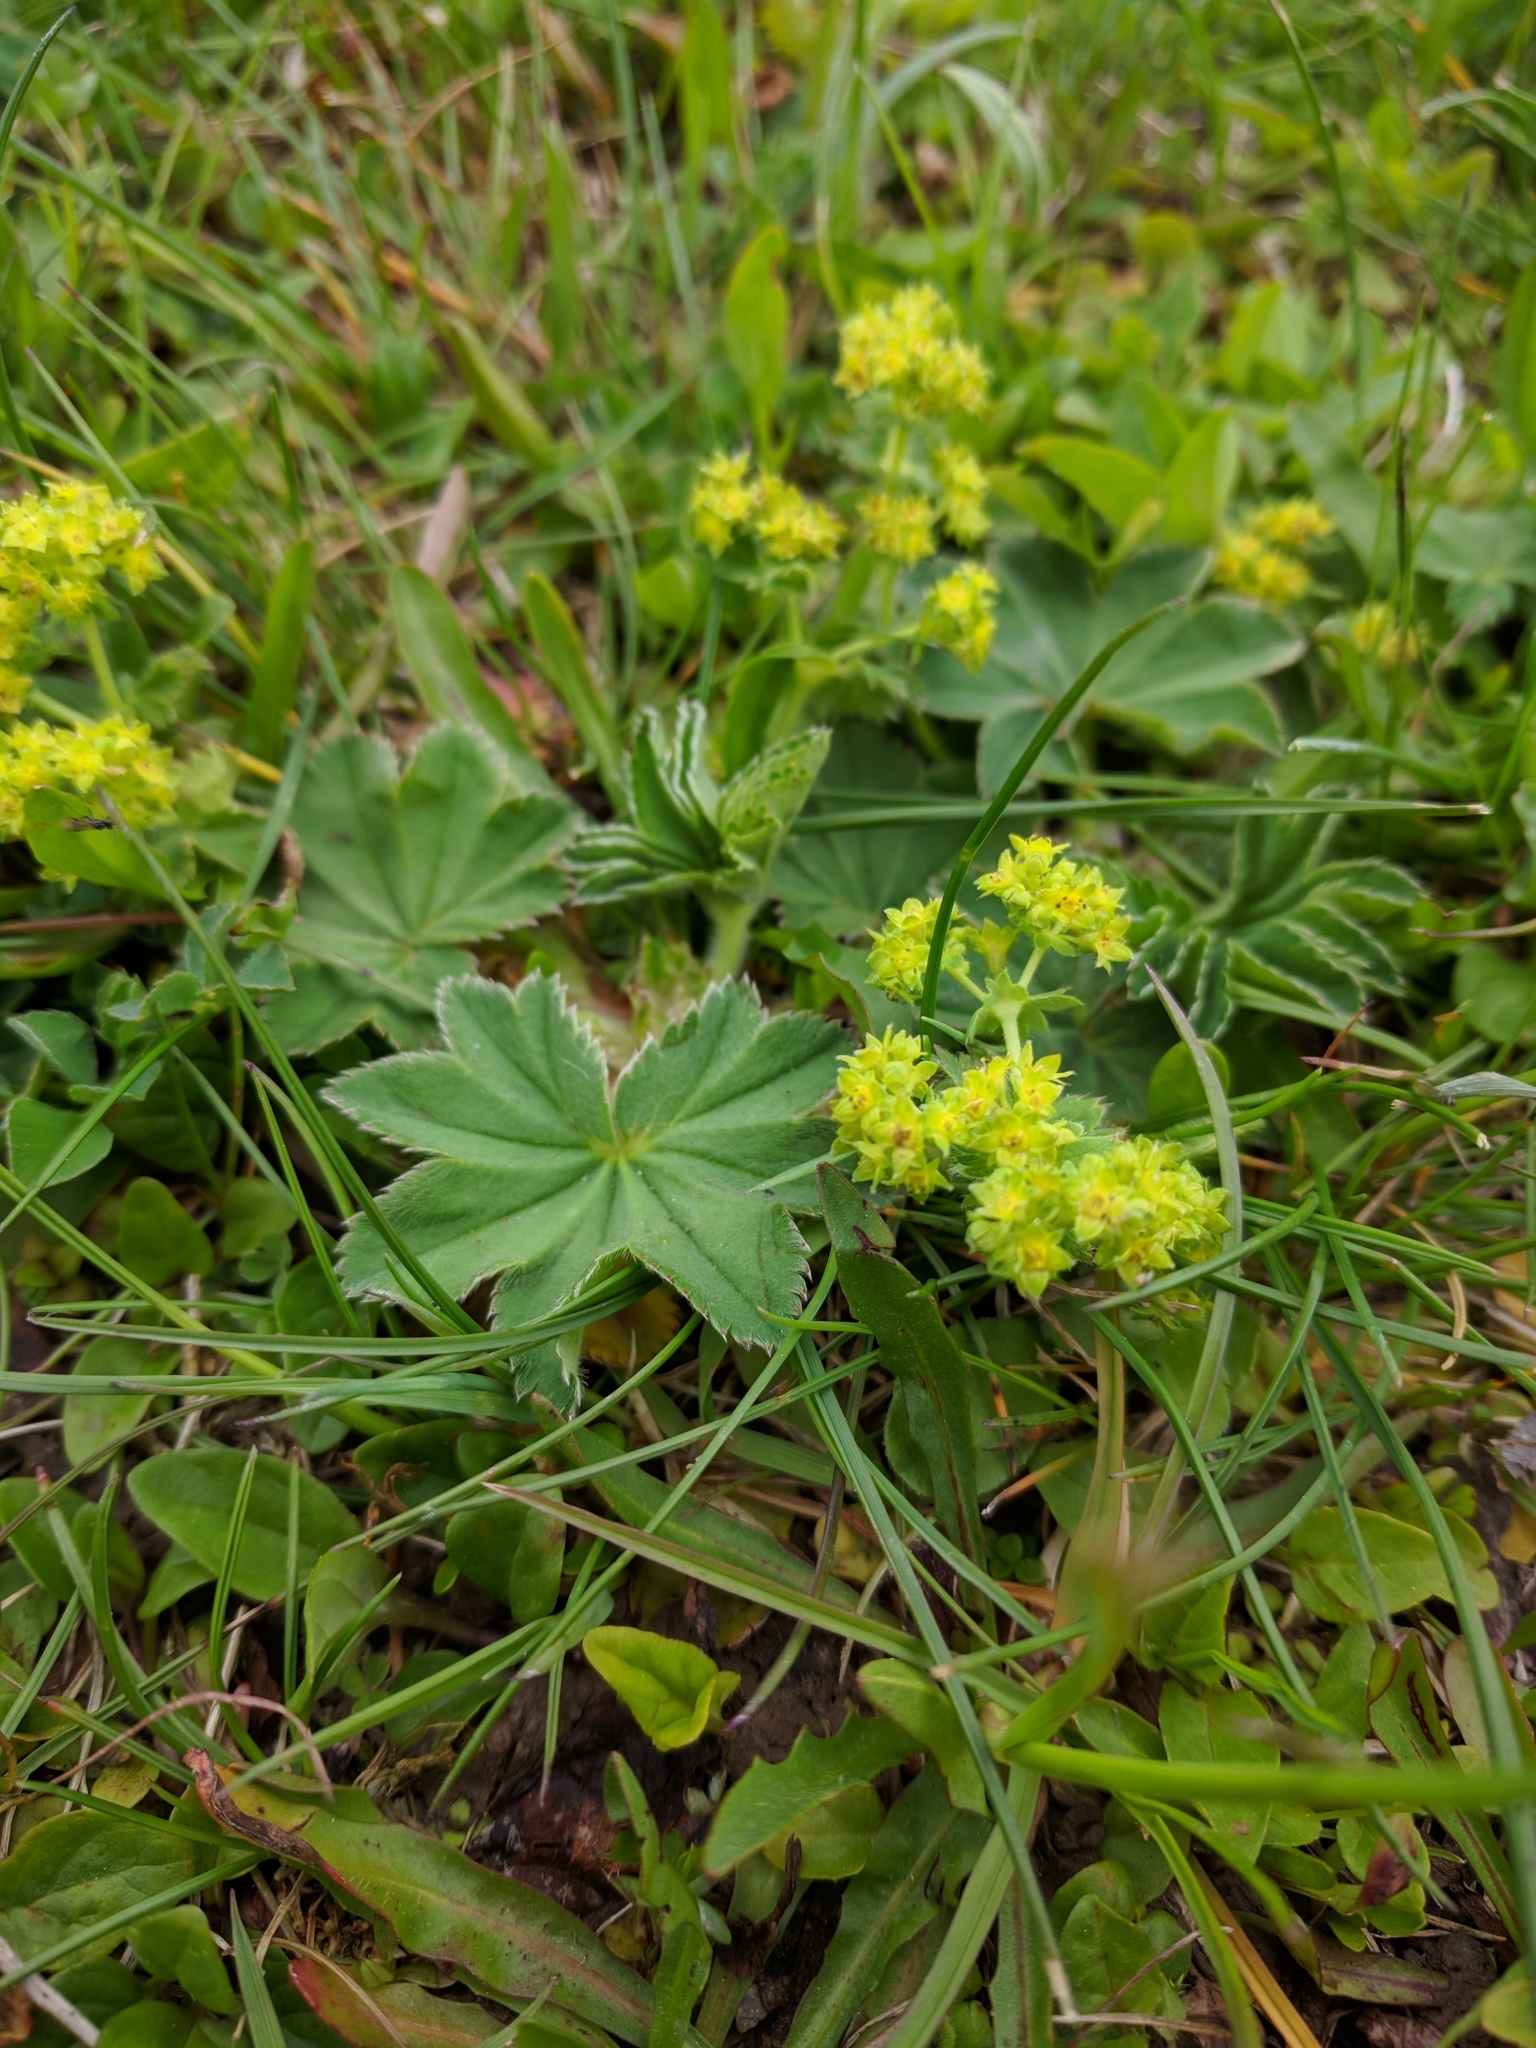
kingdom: Plantae
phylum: Tracheophyta
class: Magnoliopsida
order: Rosales
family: Rosaceae
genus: Alchemilla
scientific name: Alchemilla monticola
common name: Hairy lady's mantle
